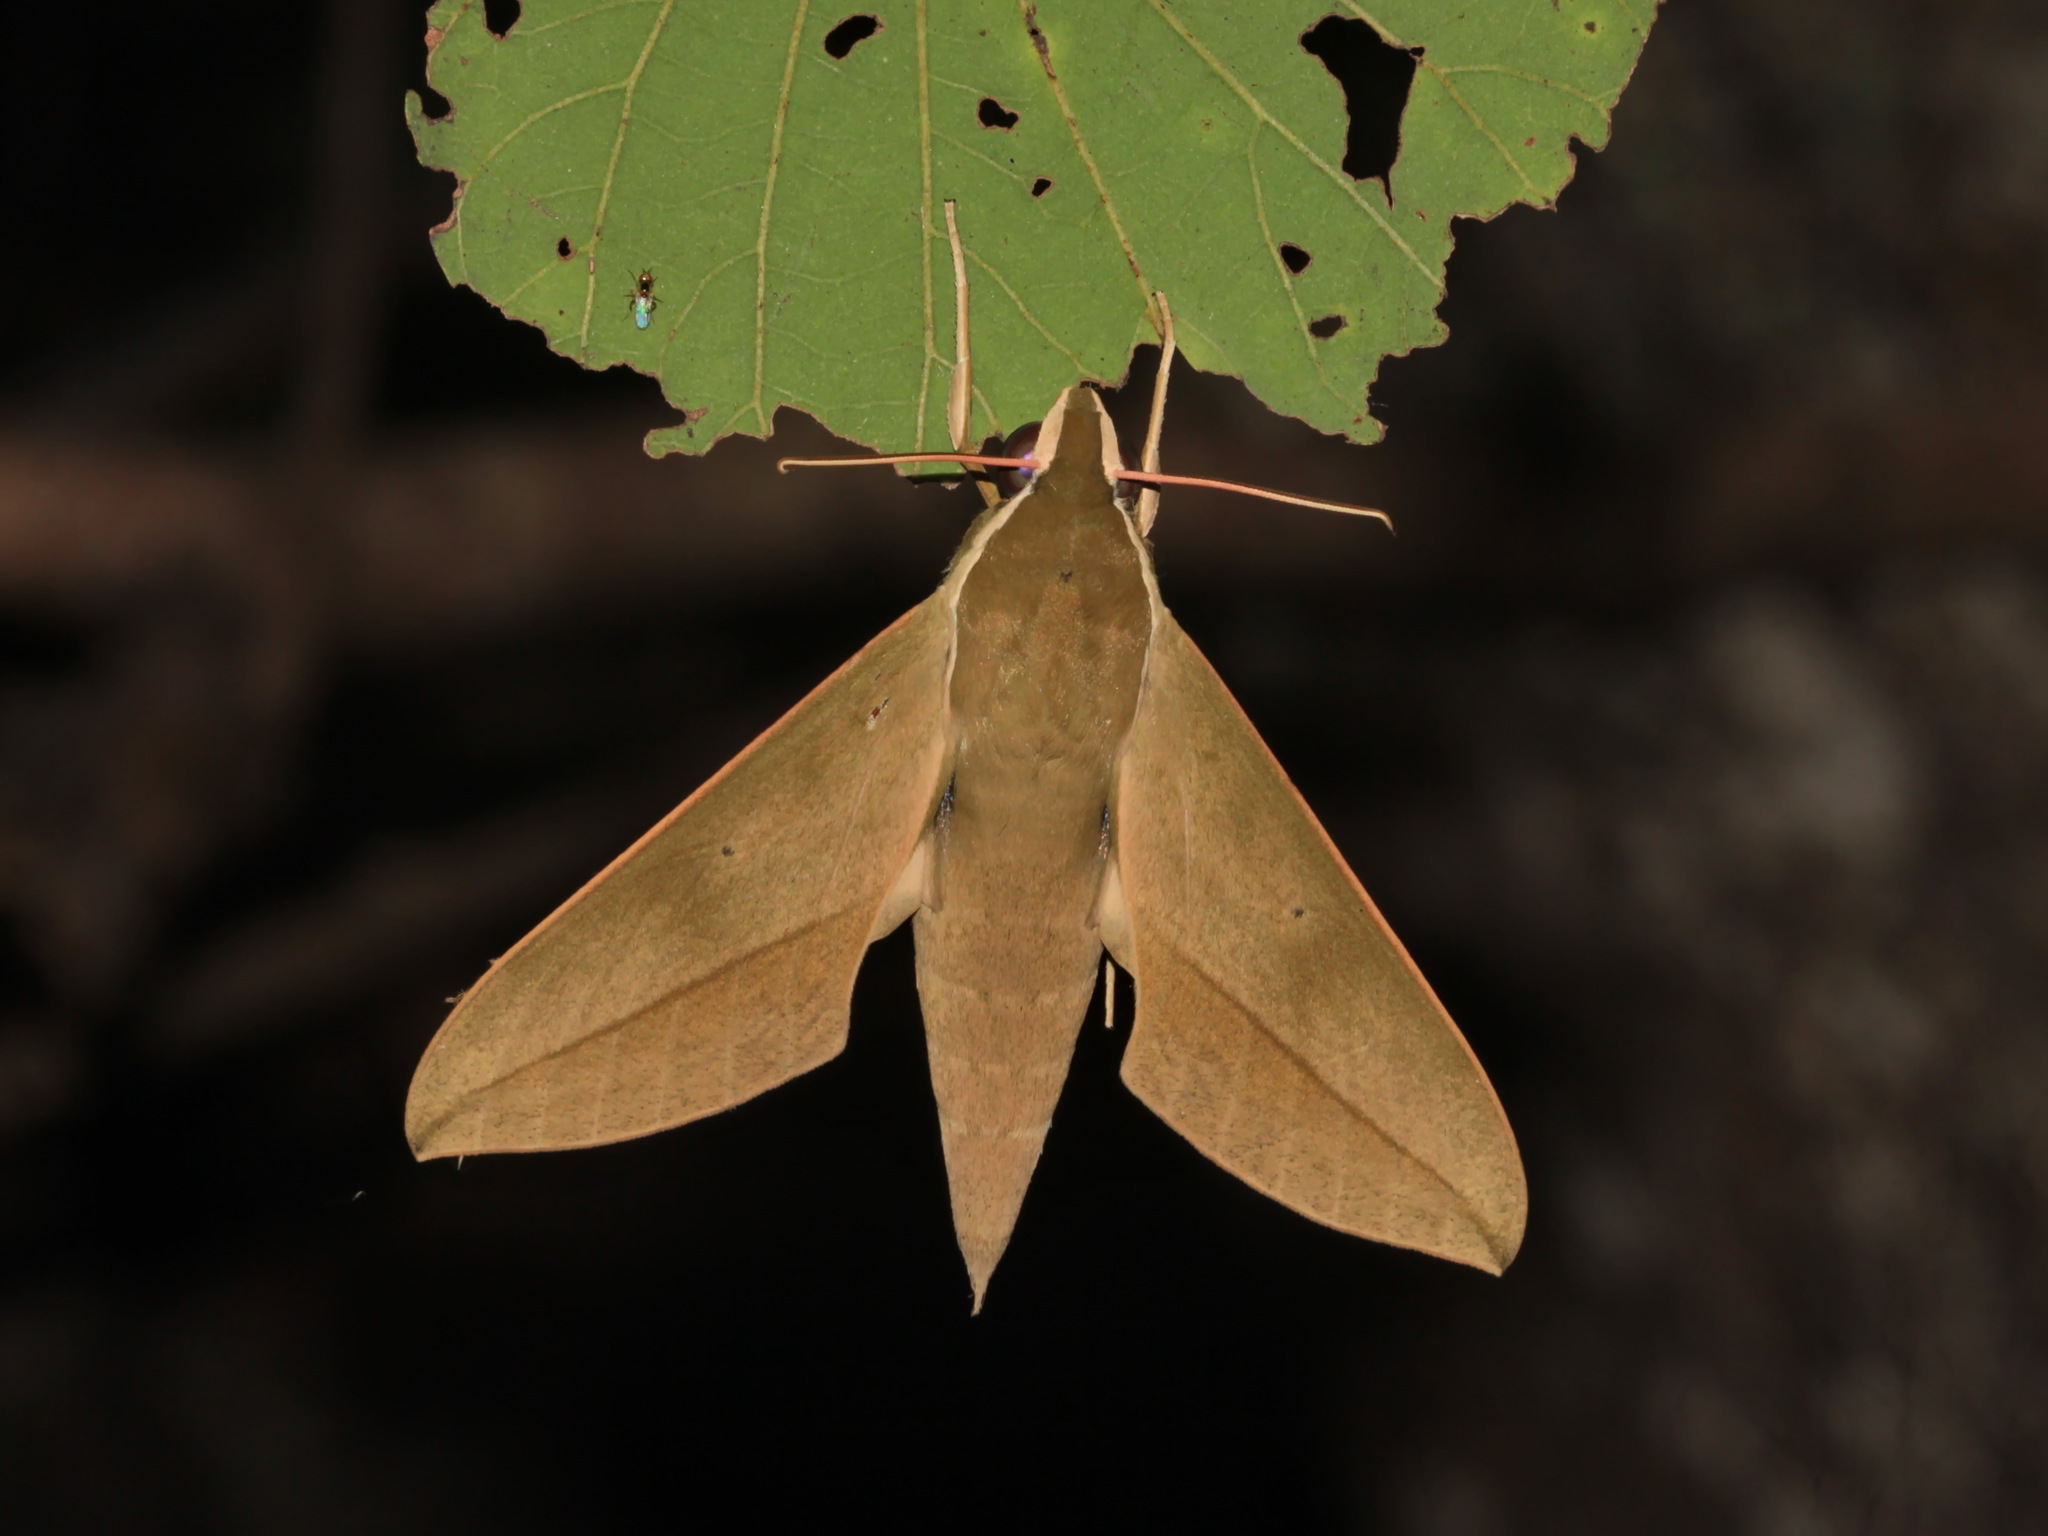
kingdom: Animalia
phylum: Arthropoda
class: Insecta
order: Lepidoptera
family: Sphingidae
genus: Theretra
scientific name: Theretra clotho
